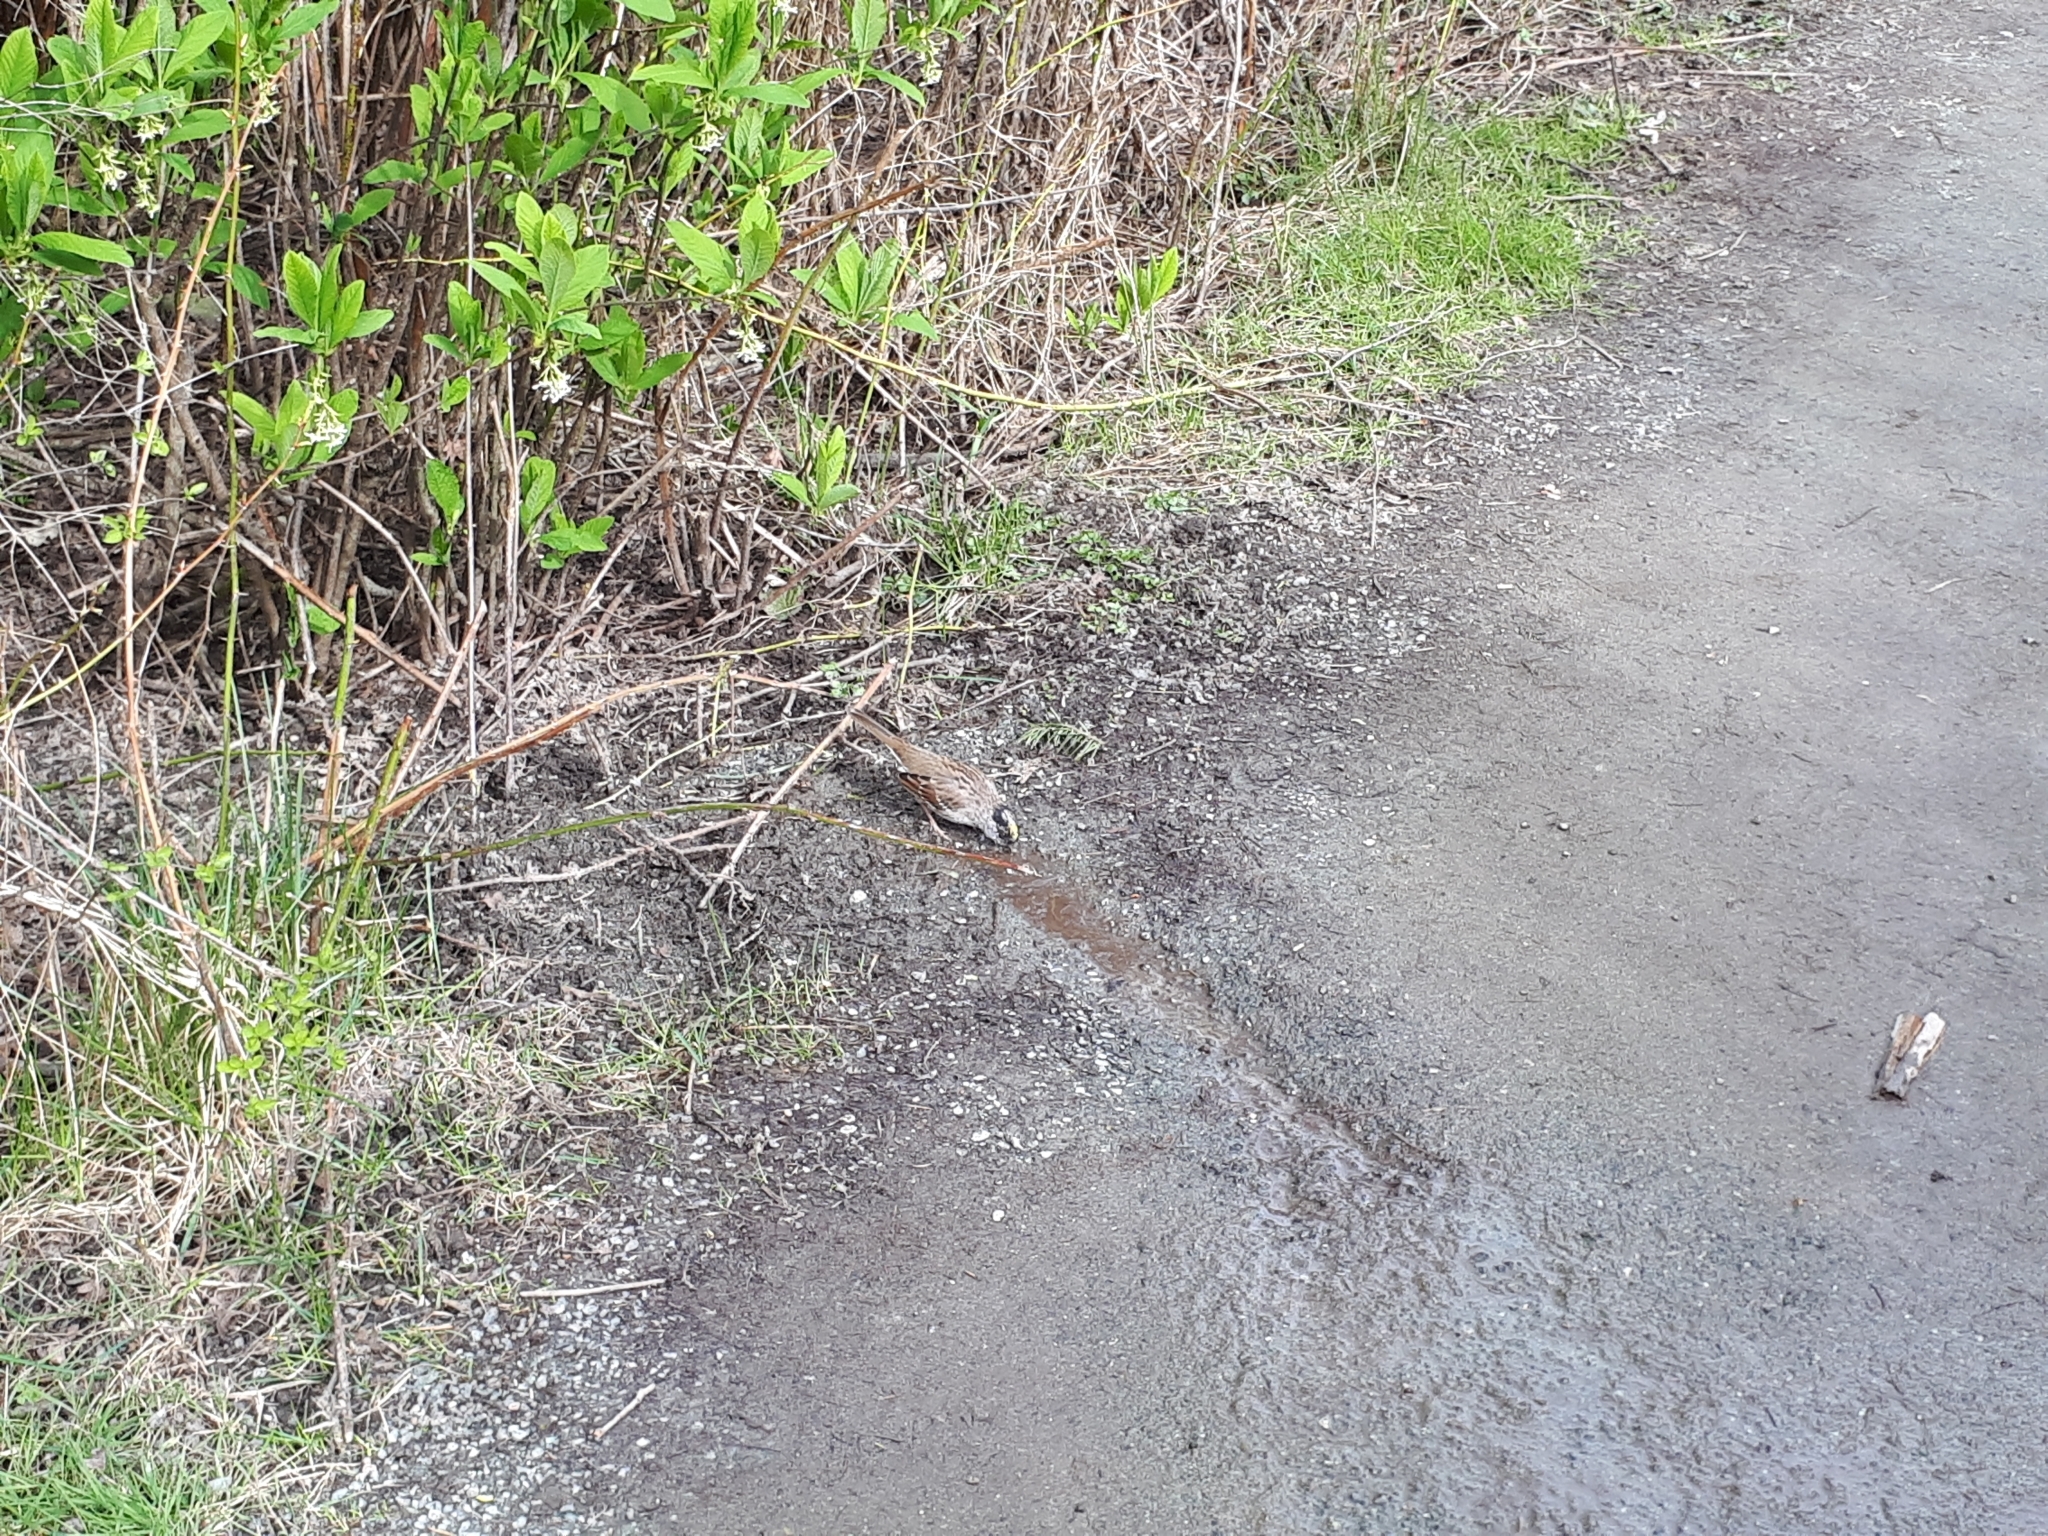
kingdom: Animalia
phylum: Chordata
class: Aves
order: Passeriformes
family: Passerellidae
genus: Zonotrichia
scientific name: Zonotrichia atricapilla
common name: Golden-crowned sparrow
